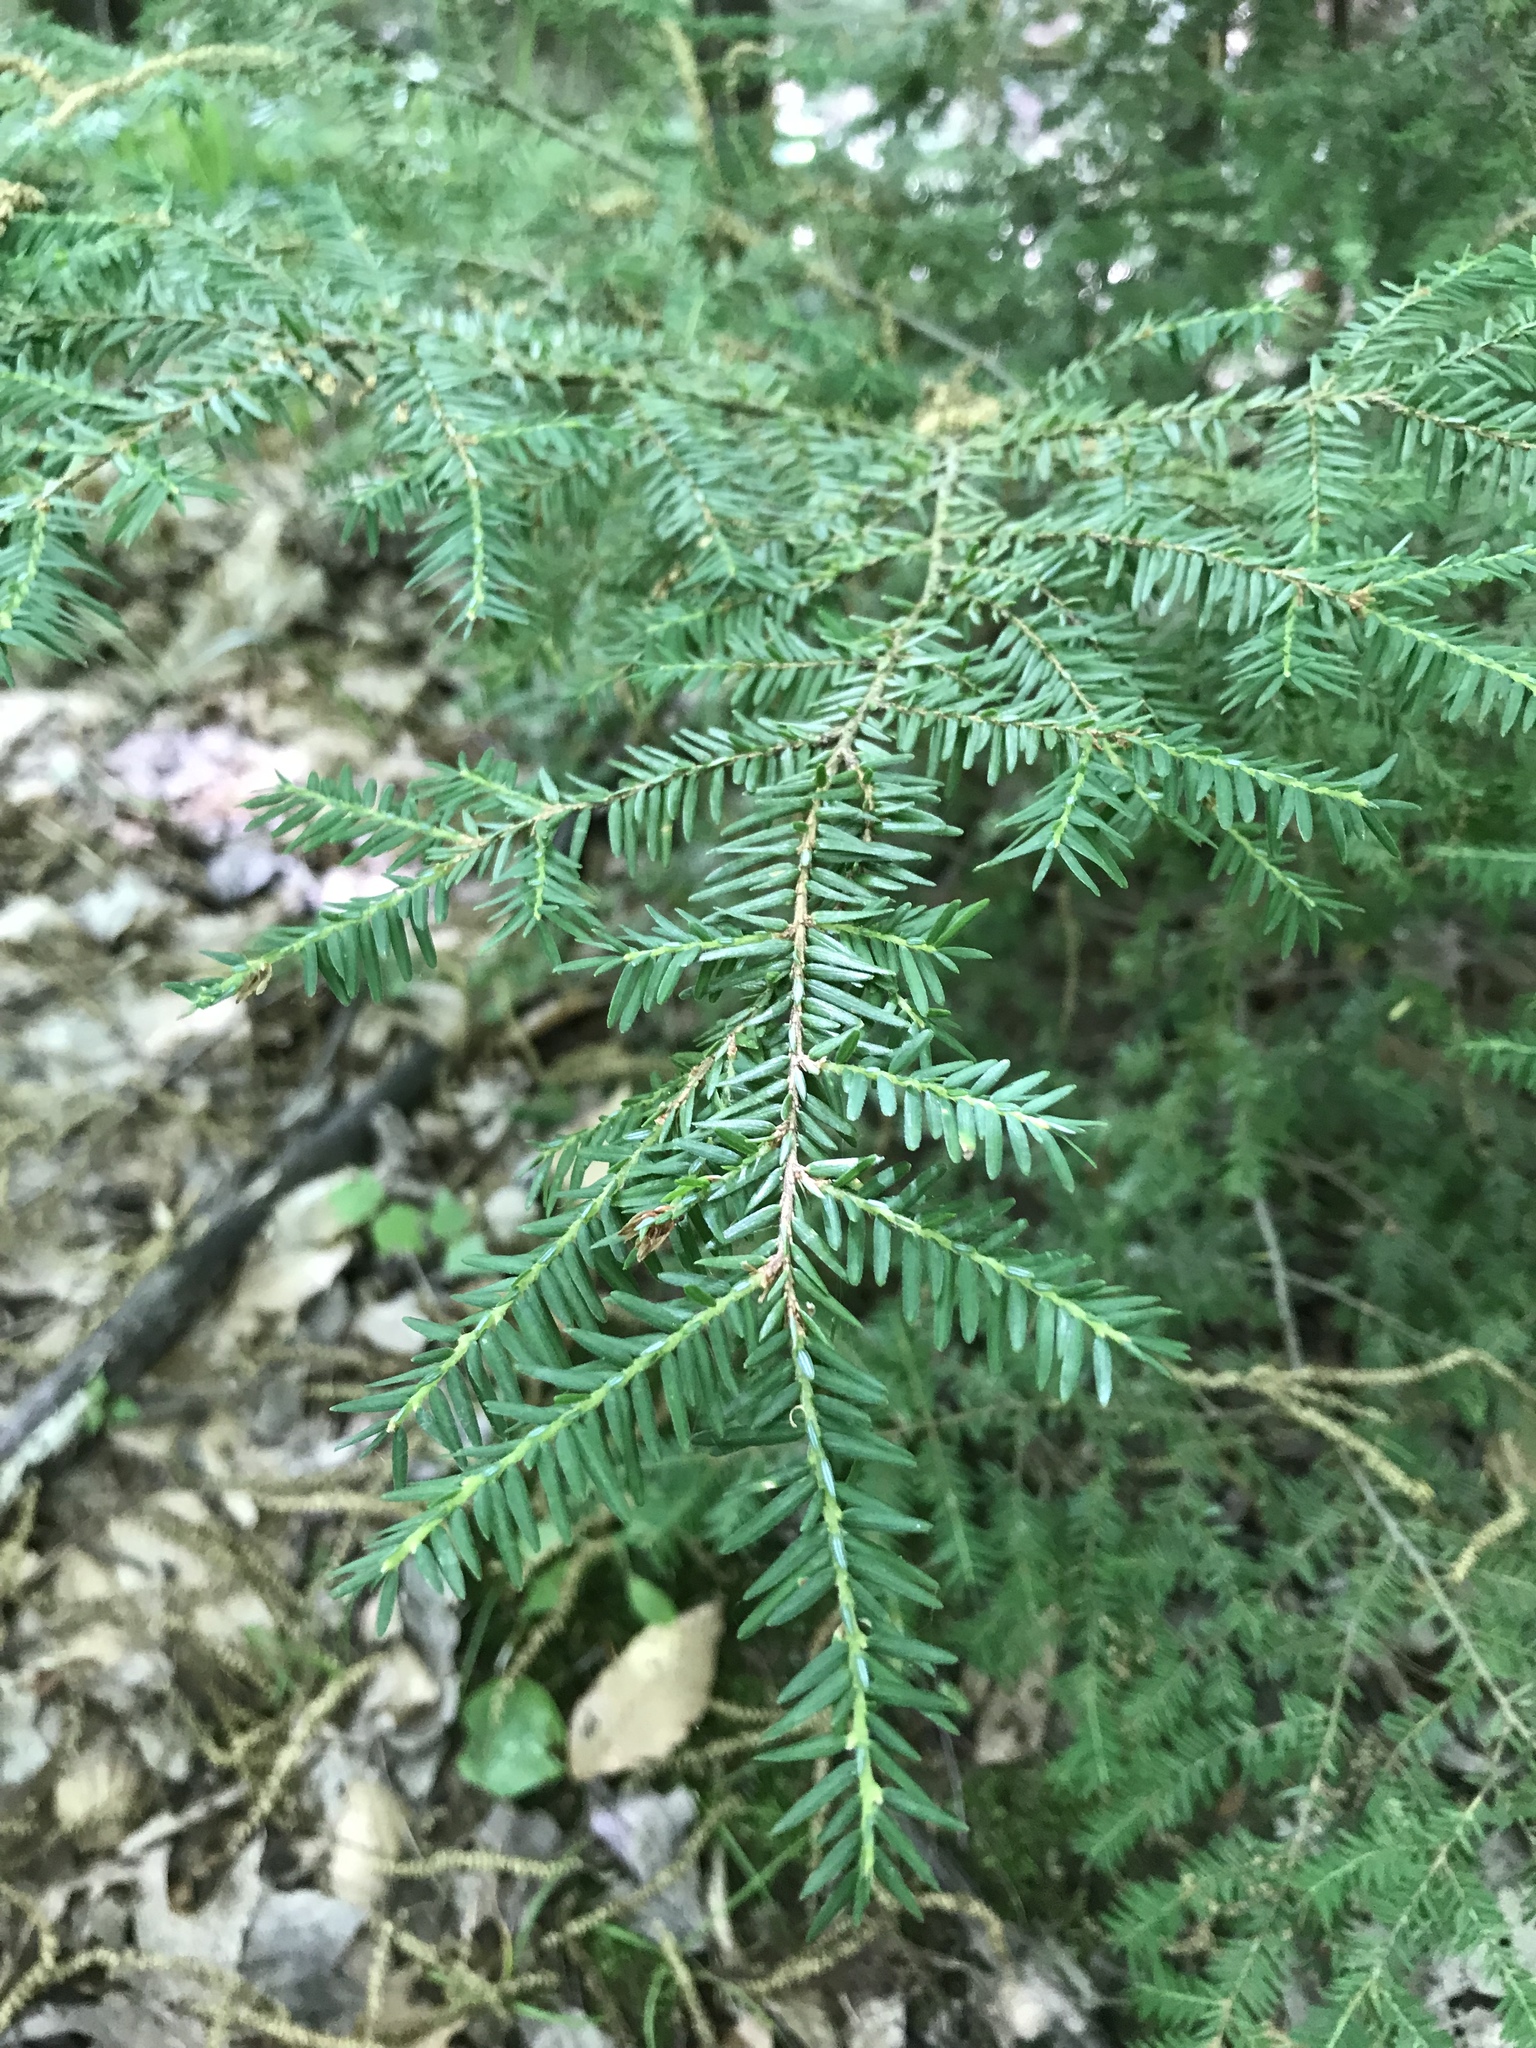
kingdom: Plantae
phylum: Tracheophyta
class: Pinopsida
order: Pinales
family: Pinaceae
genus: Tsuga
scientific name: Tsuga canadensis
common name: Eastern hemlock
